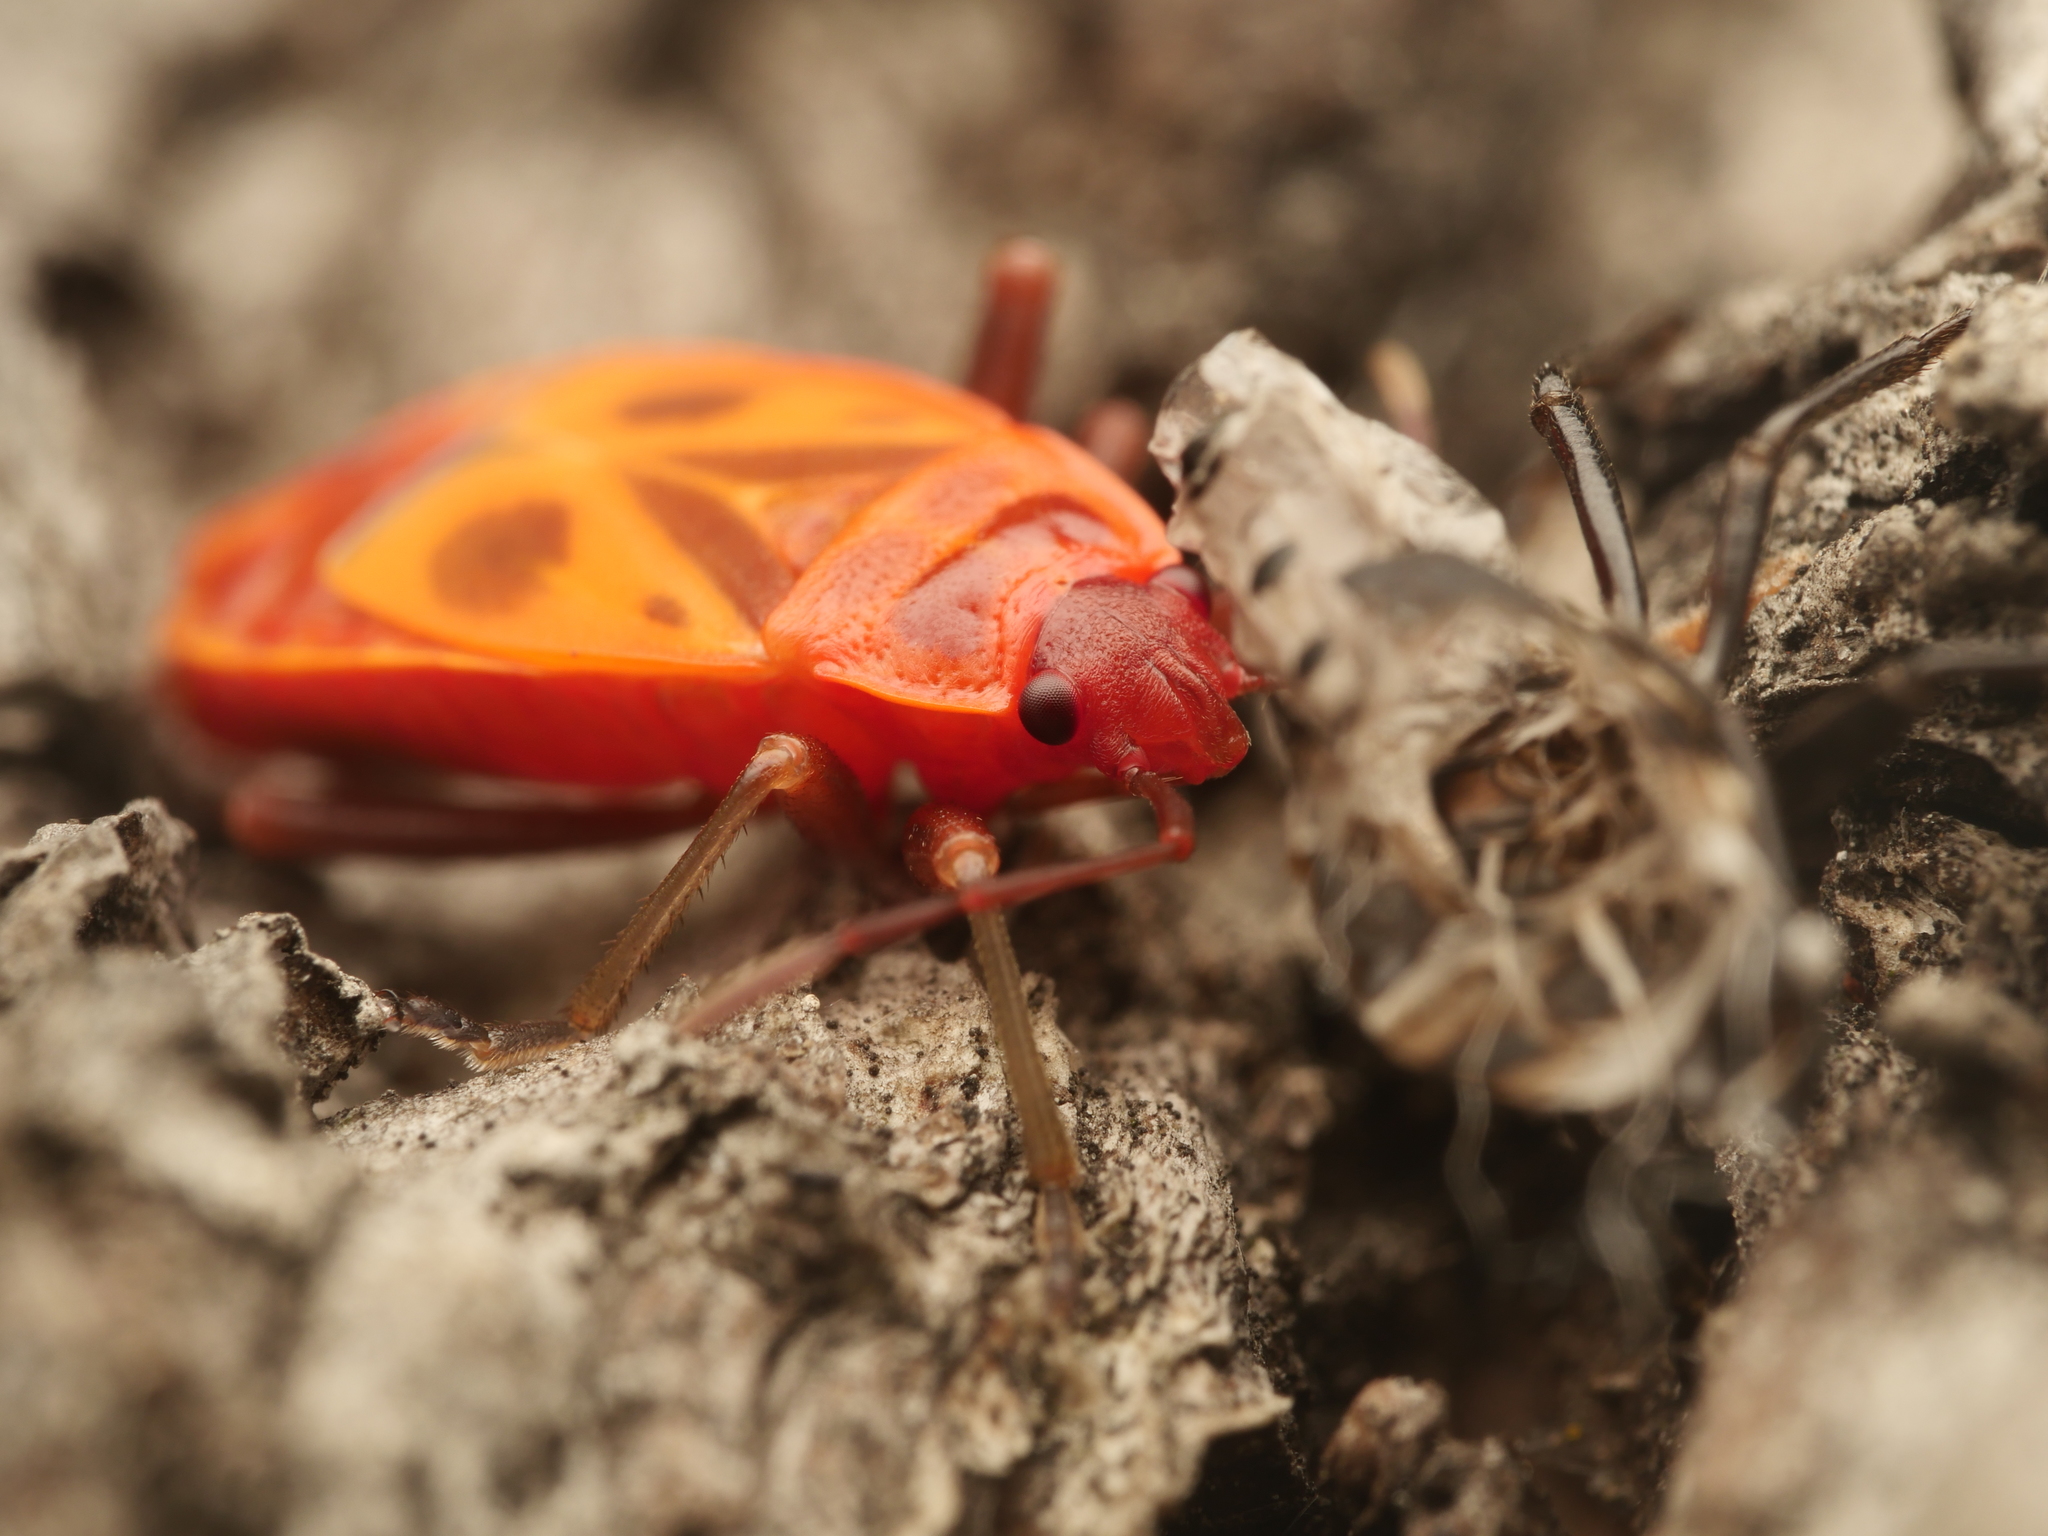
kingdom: Animalia
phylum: Arthropoda
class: Insecta
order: Hemiptera
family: Pyrrhocoridae
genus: Pyrrhocoris
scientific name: Pyrrhocoris apterus
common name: Firebug
